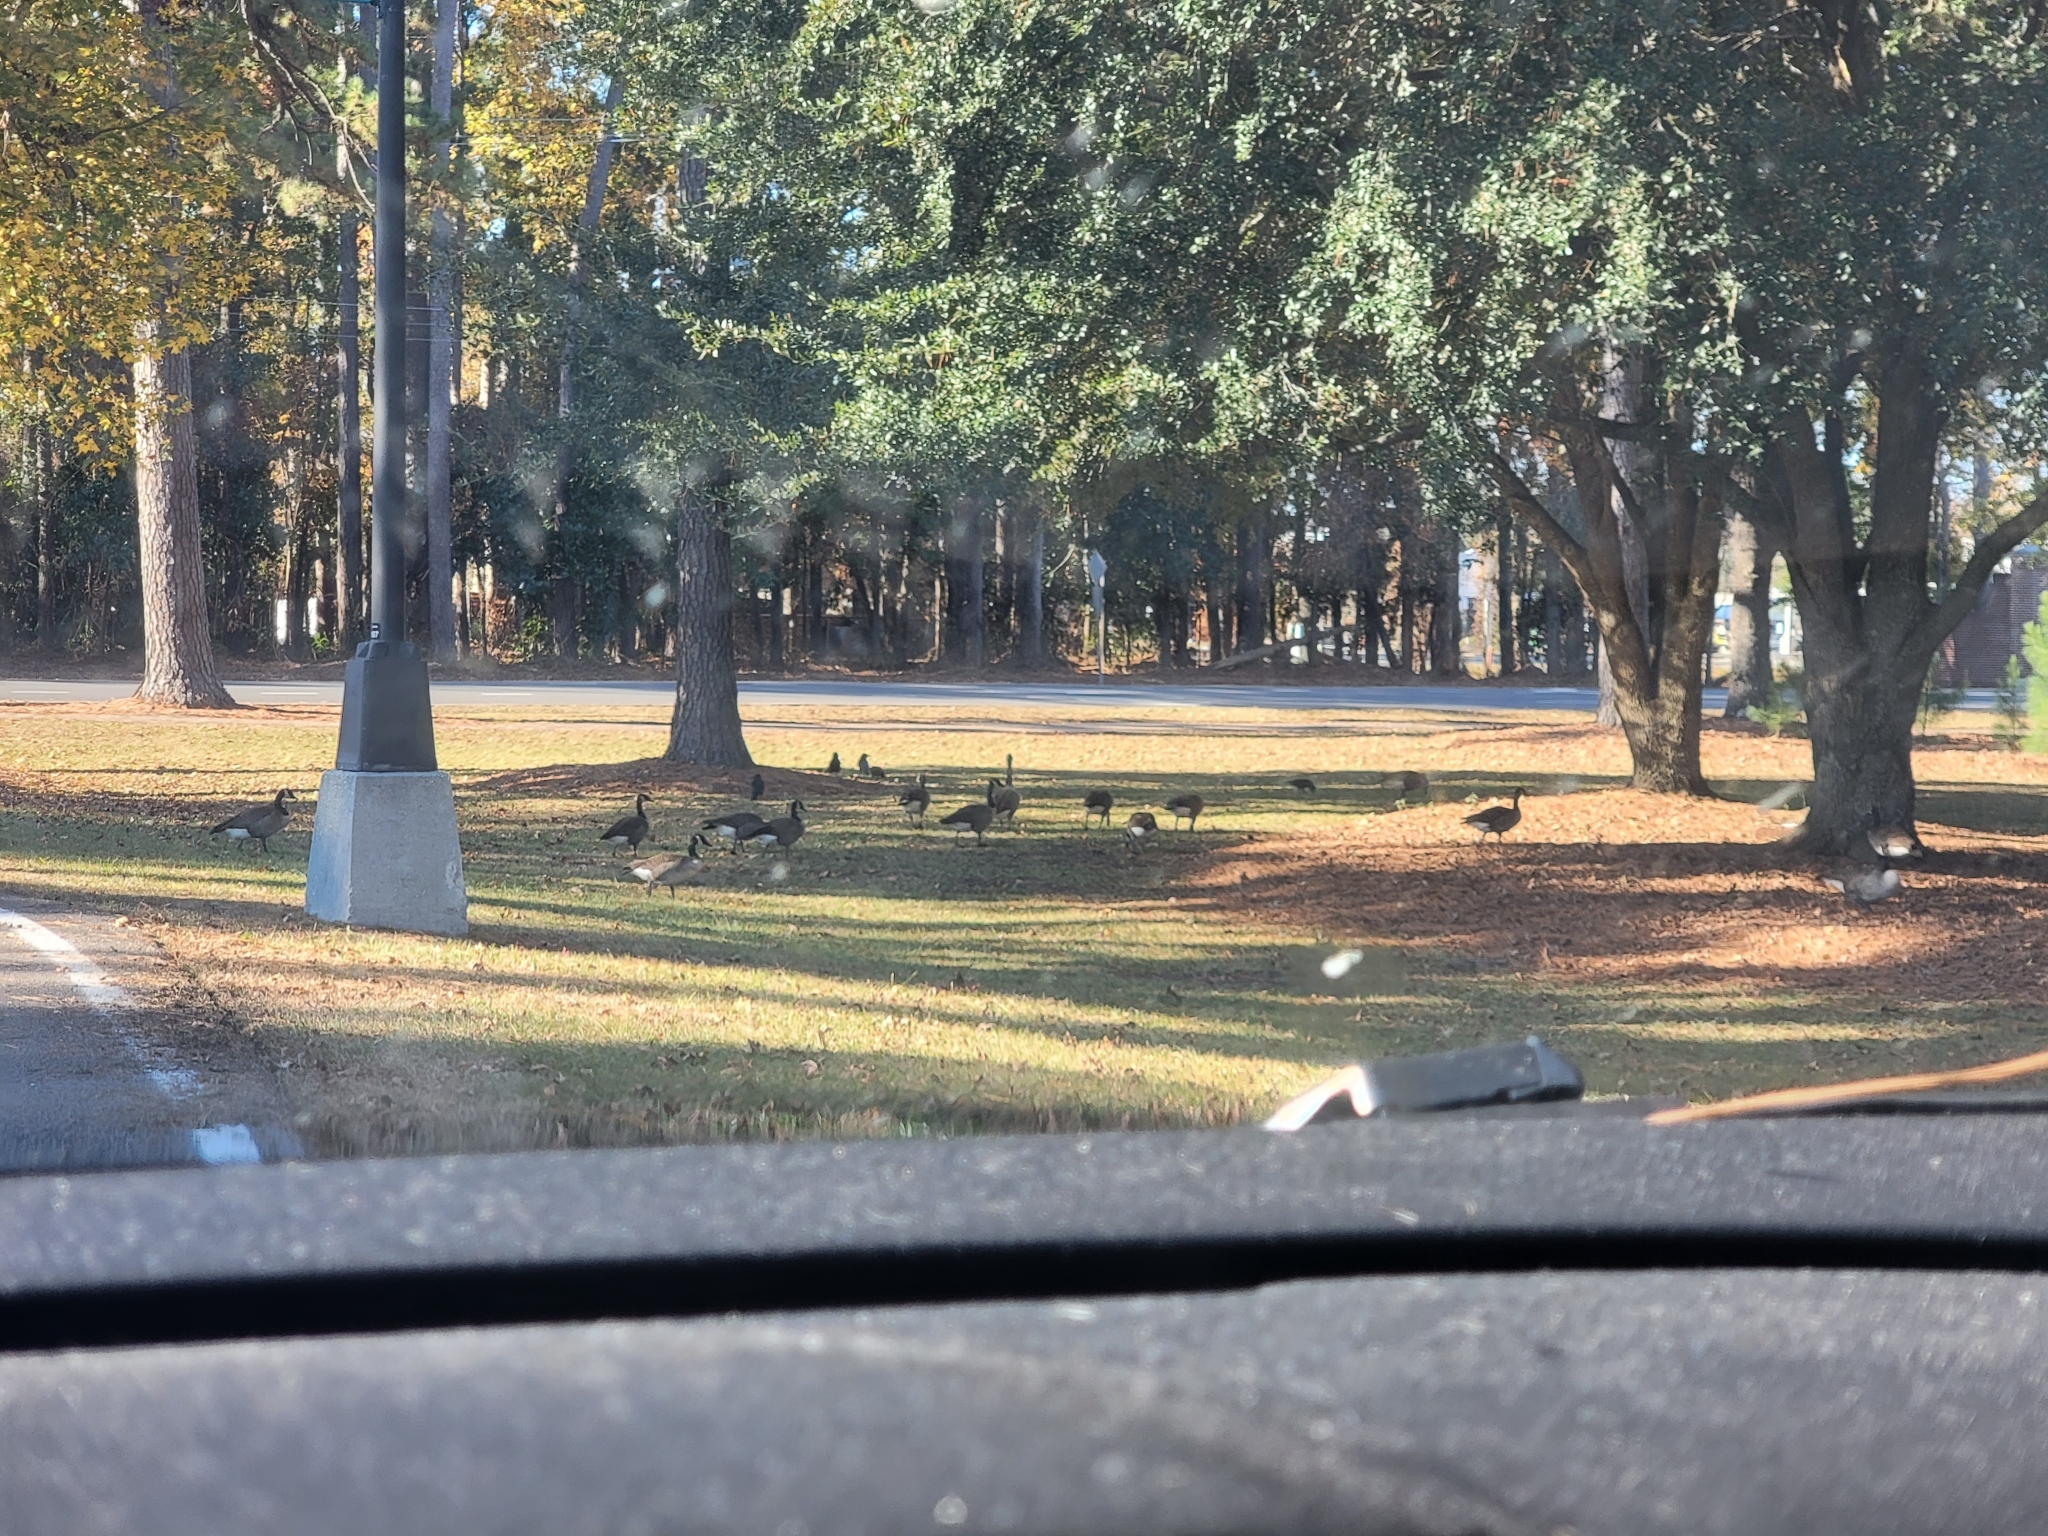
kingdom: Animalia
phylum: Chordata
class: Aves
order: Anseriformes
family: Anatidae
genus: Branta
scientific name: Branta canadensis
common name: Canada goose
